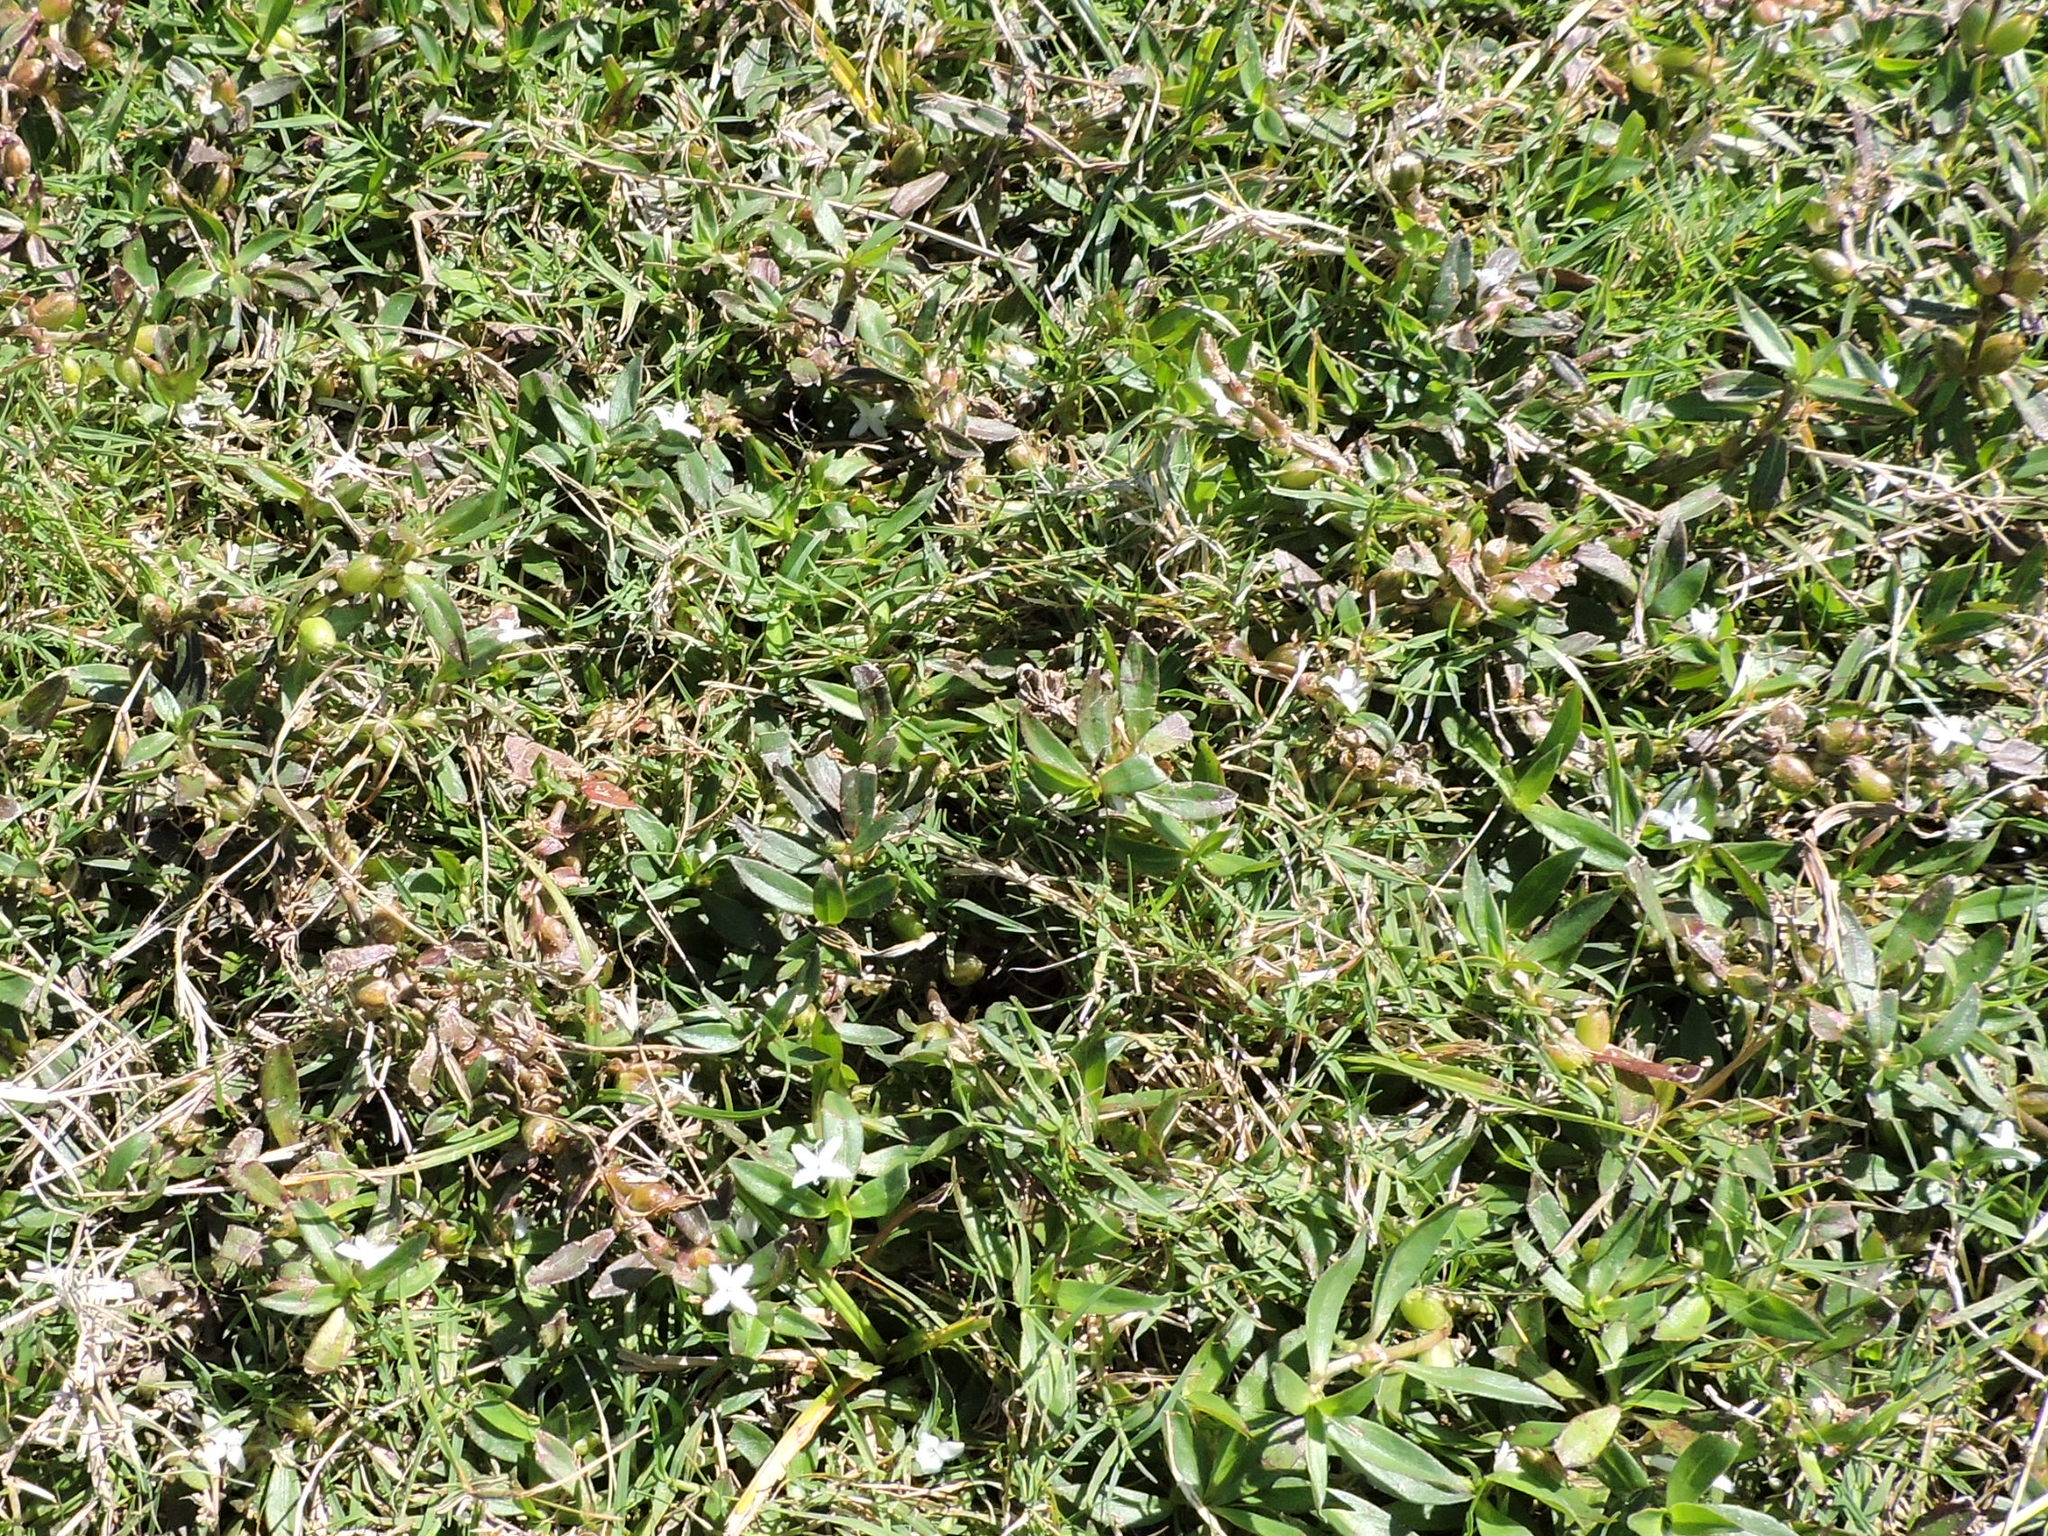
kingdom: Plantae
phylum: Tracheophyta
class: Magnoliopsida
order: Gentianales
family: Rubiaceae
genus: Diodia
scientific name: Diodia virginiana
